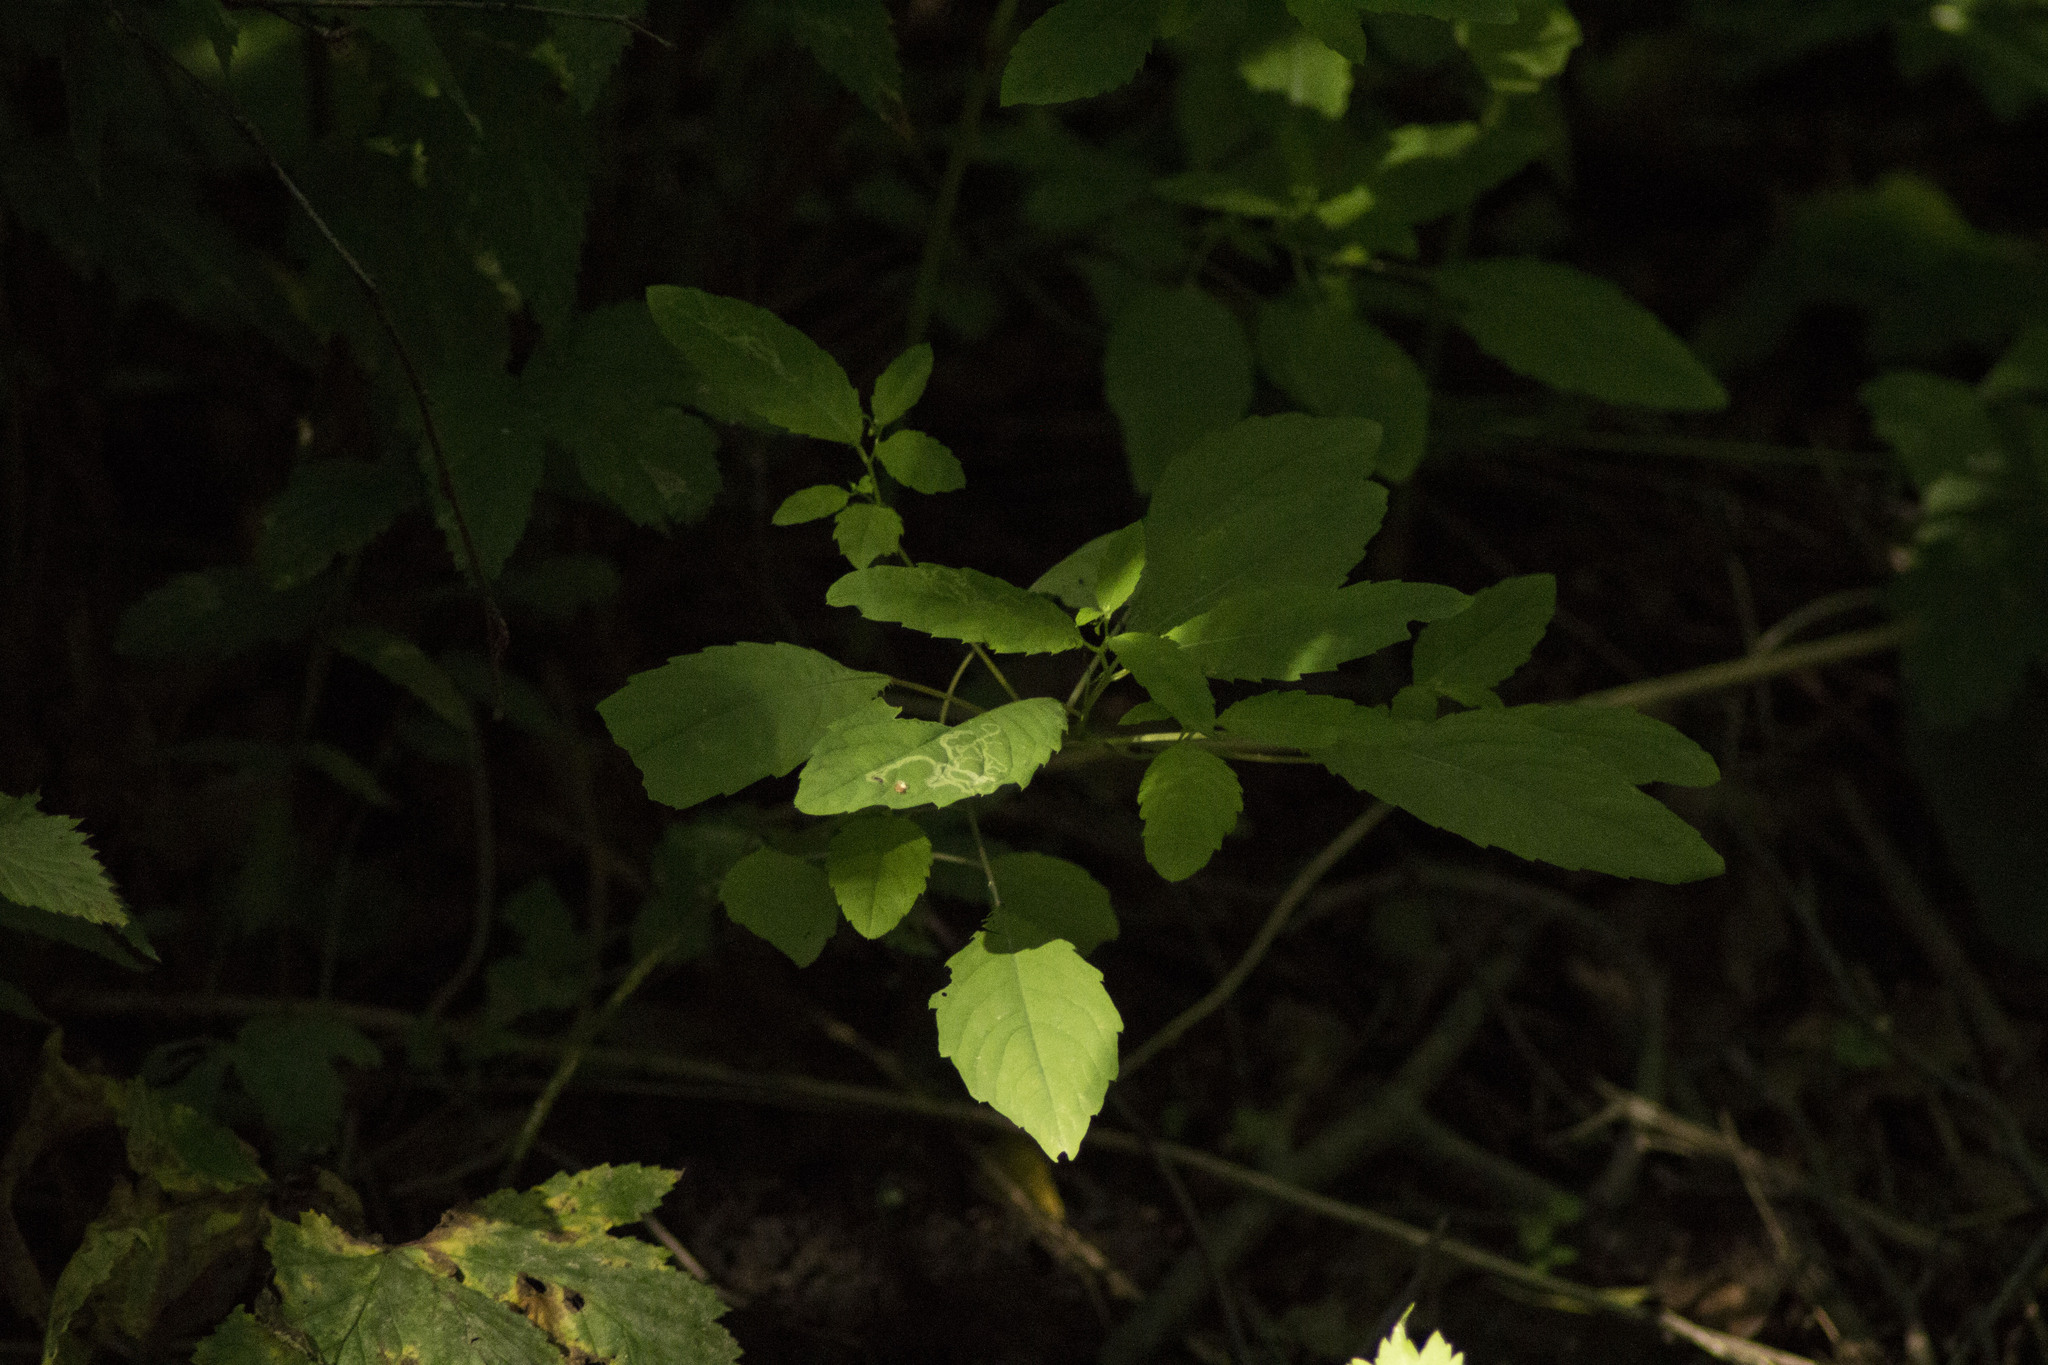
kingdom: Plantae
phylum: Tracheophyta
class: Magnoliopsida
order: Ericales
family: Balsaminaceae
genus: Impatiens
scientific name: Impatiens noli-tangere
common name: Touch-me-not balsam
